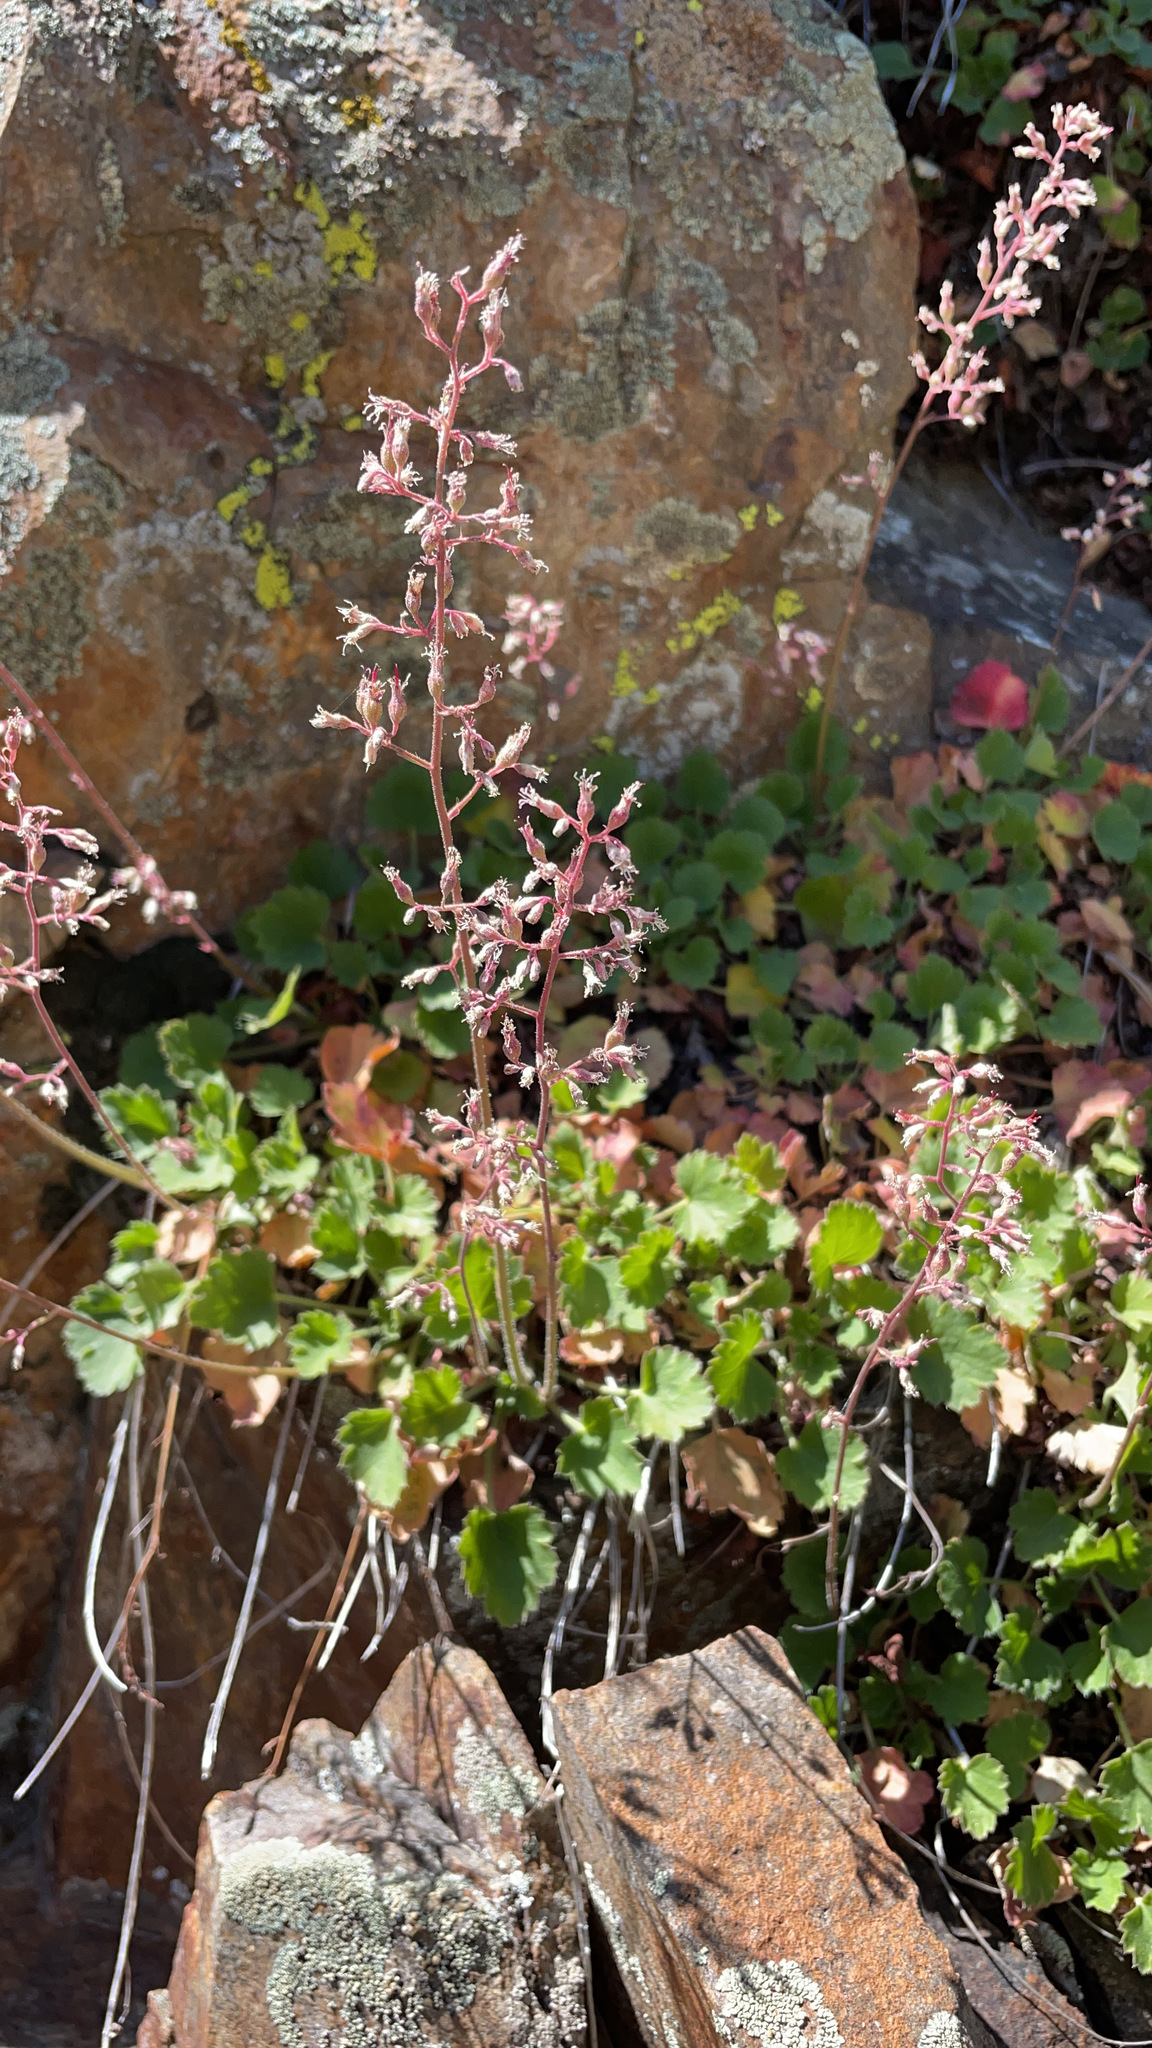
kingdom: Plantae
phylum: Tracheophyta
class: Magnoliopsida
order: Saxifragales
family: Saxifragaceae
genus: Heuchera
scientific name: Heuchera rubescens
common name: Jack-o'the-rocks
